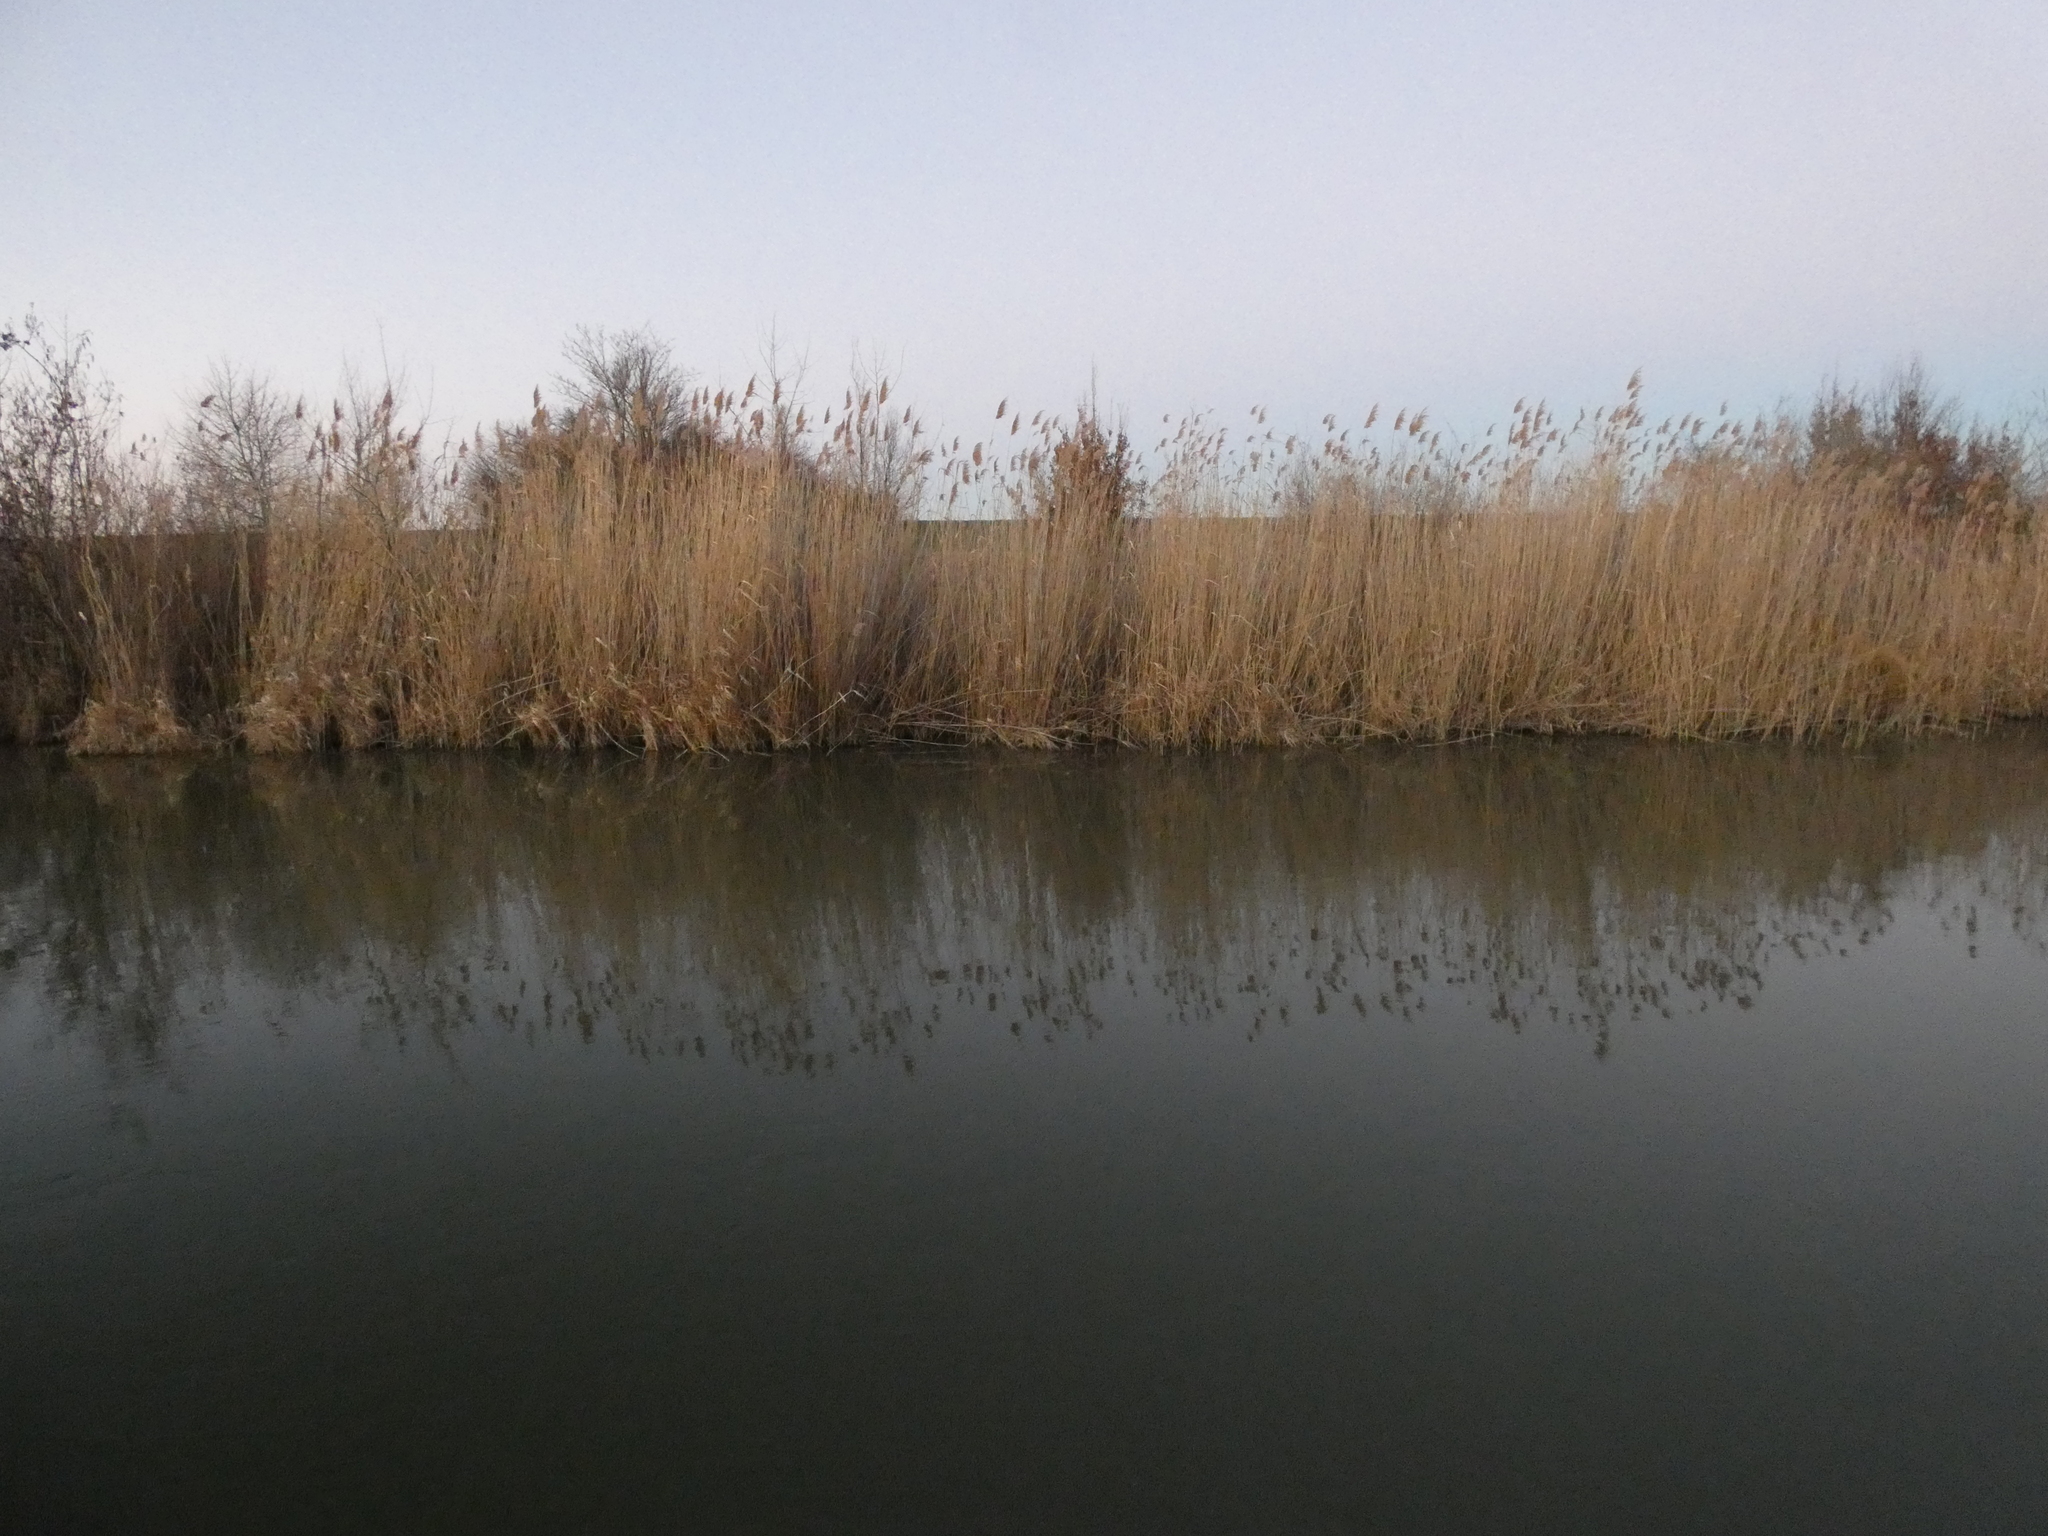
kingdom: Plantae
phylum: Tracheophyta
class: Liliopsida
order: Poales
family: Poaceae
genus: Phragmites
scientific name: Phragmites australis
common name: Common reed
